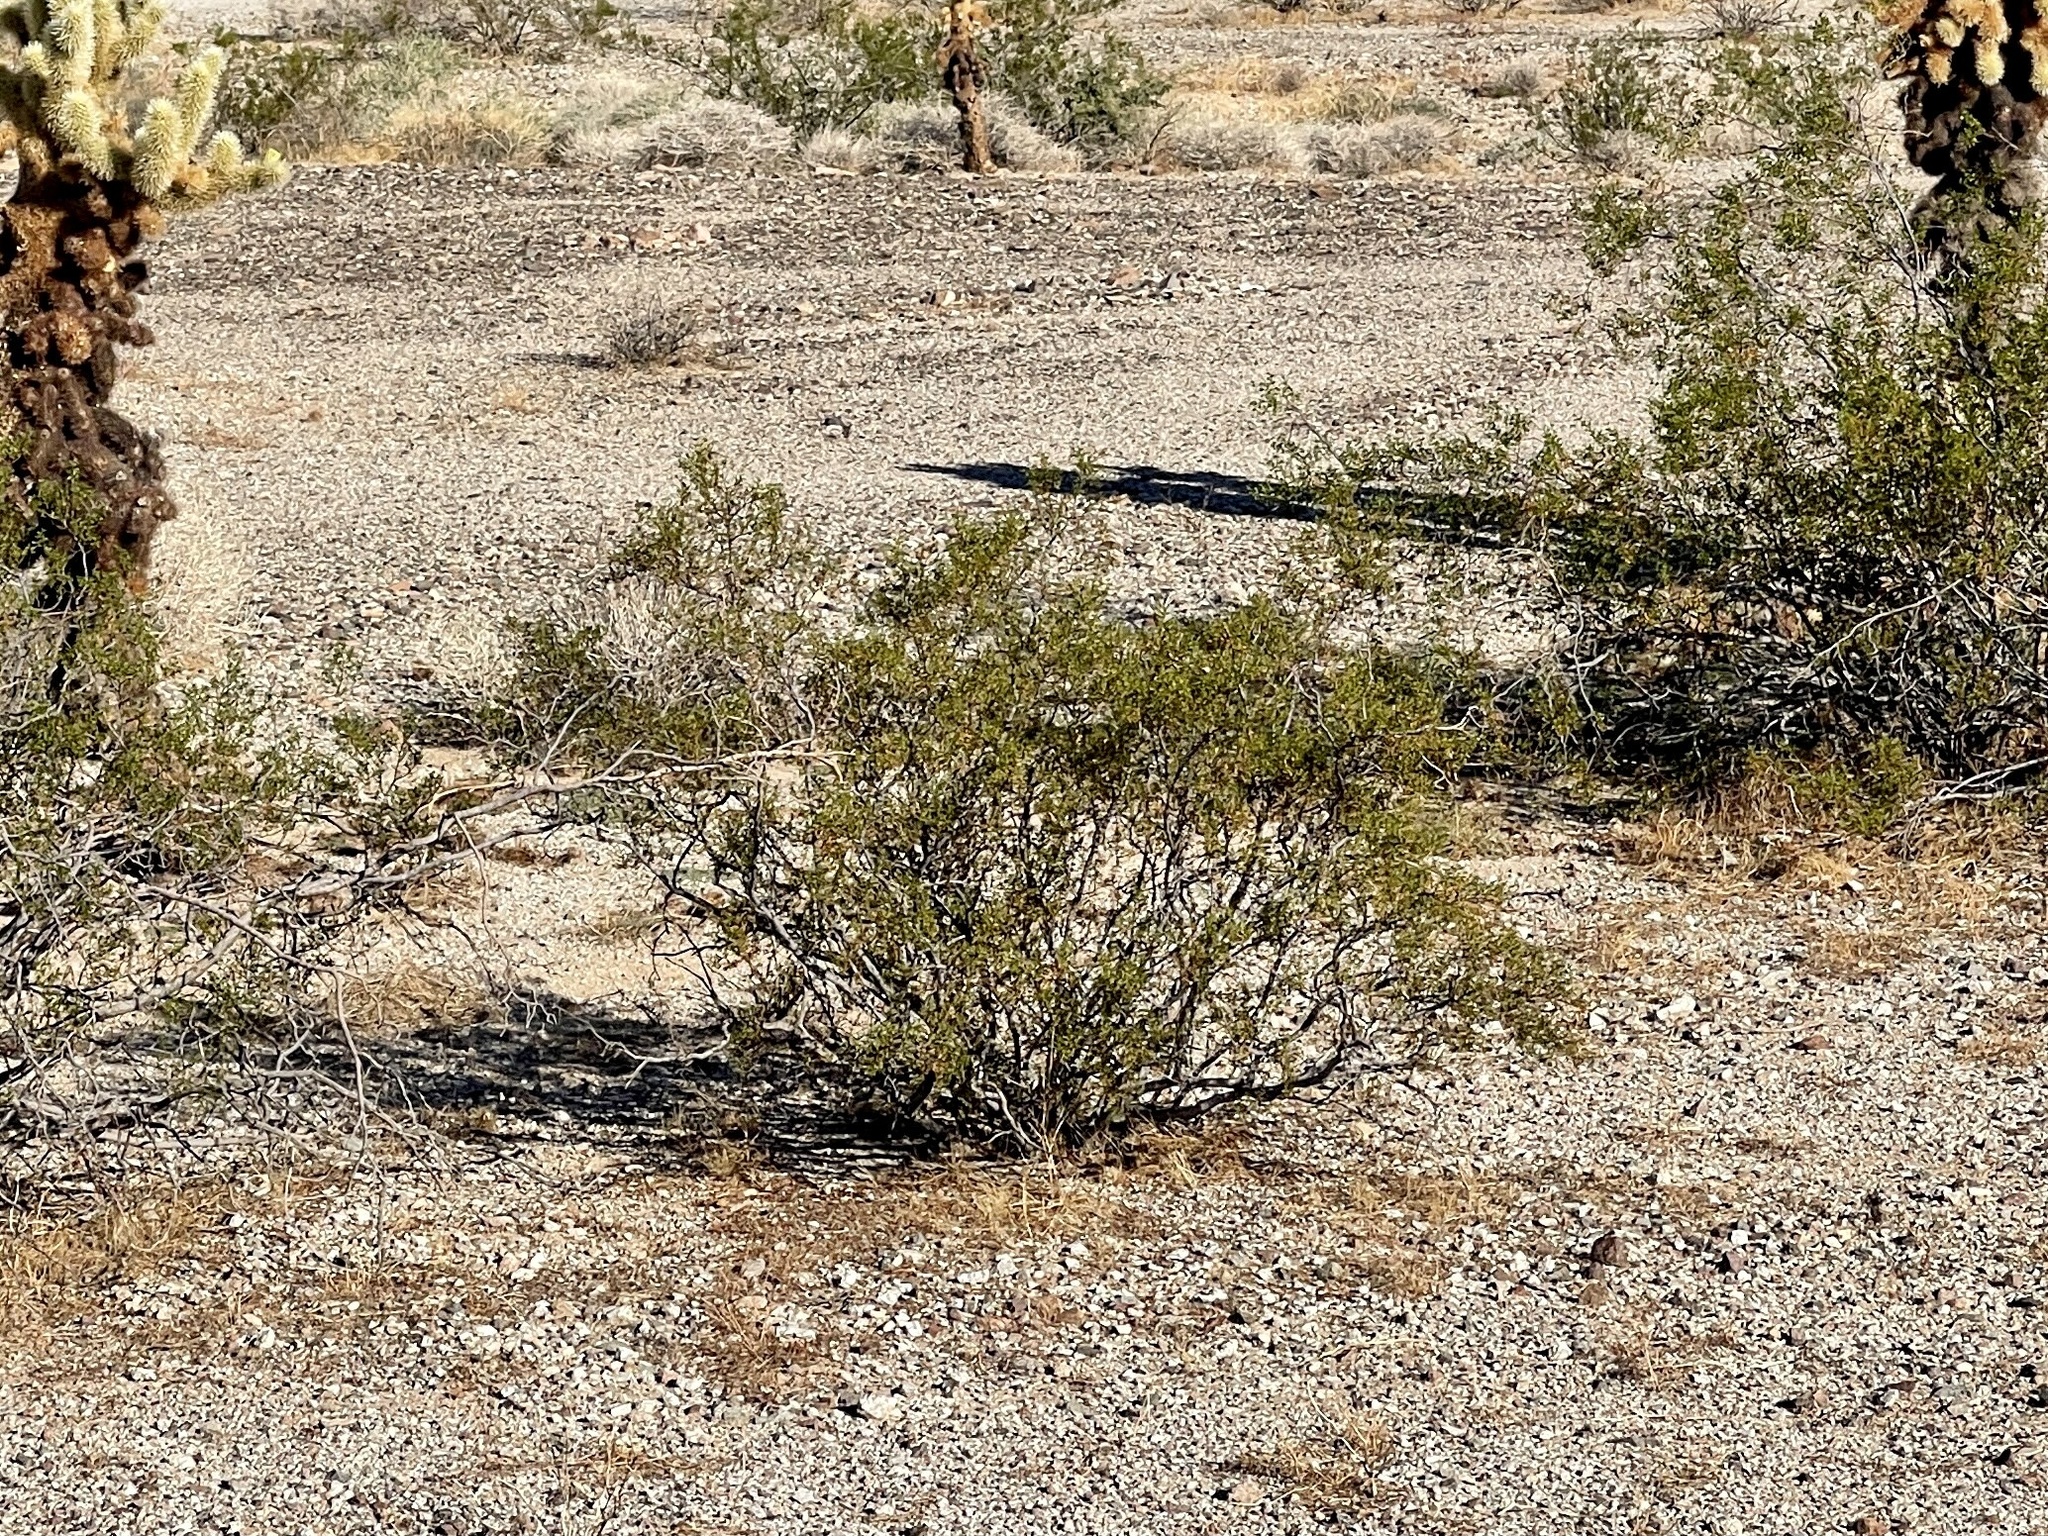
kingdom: Plantae
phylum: Tracheophyta
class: Magnoliopsida
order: Zygophyllales
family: Zygophyllaceae
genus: Larrea
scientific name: Larrea tridentata
